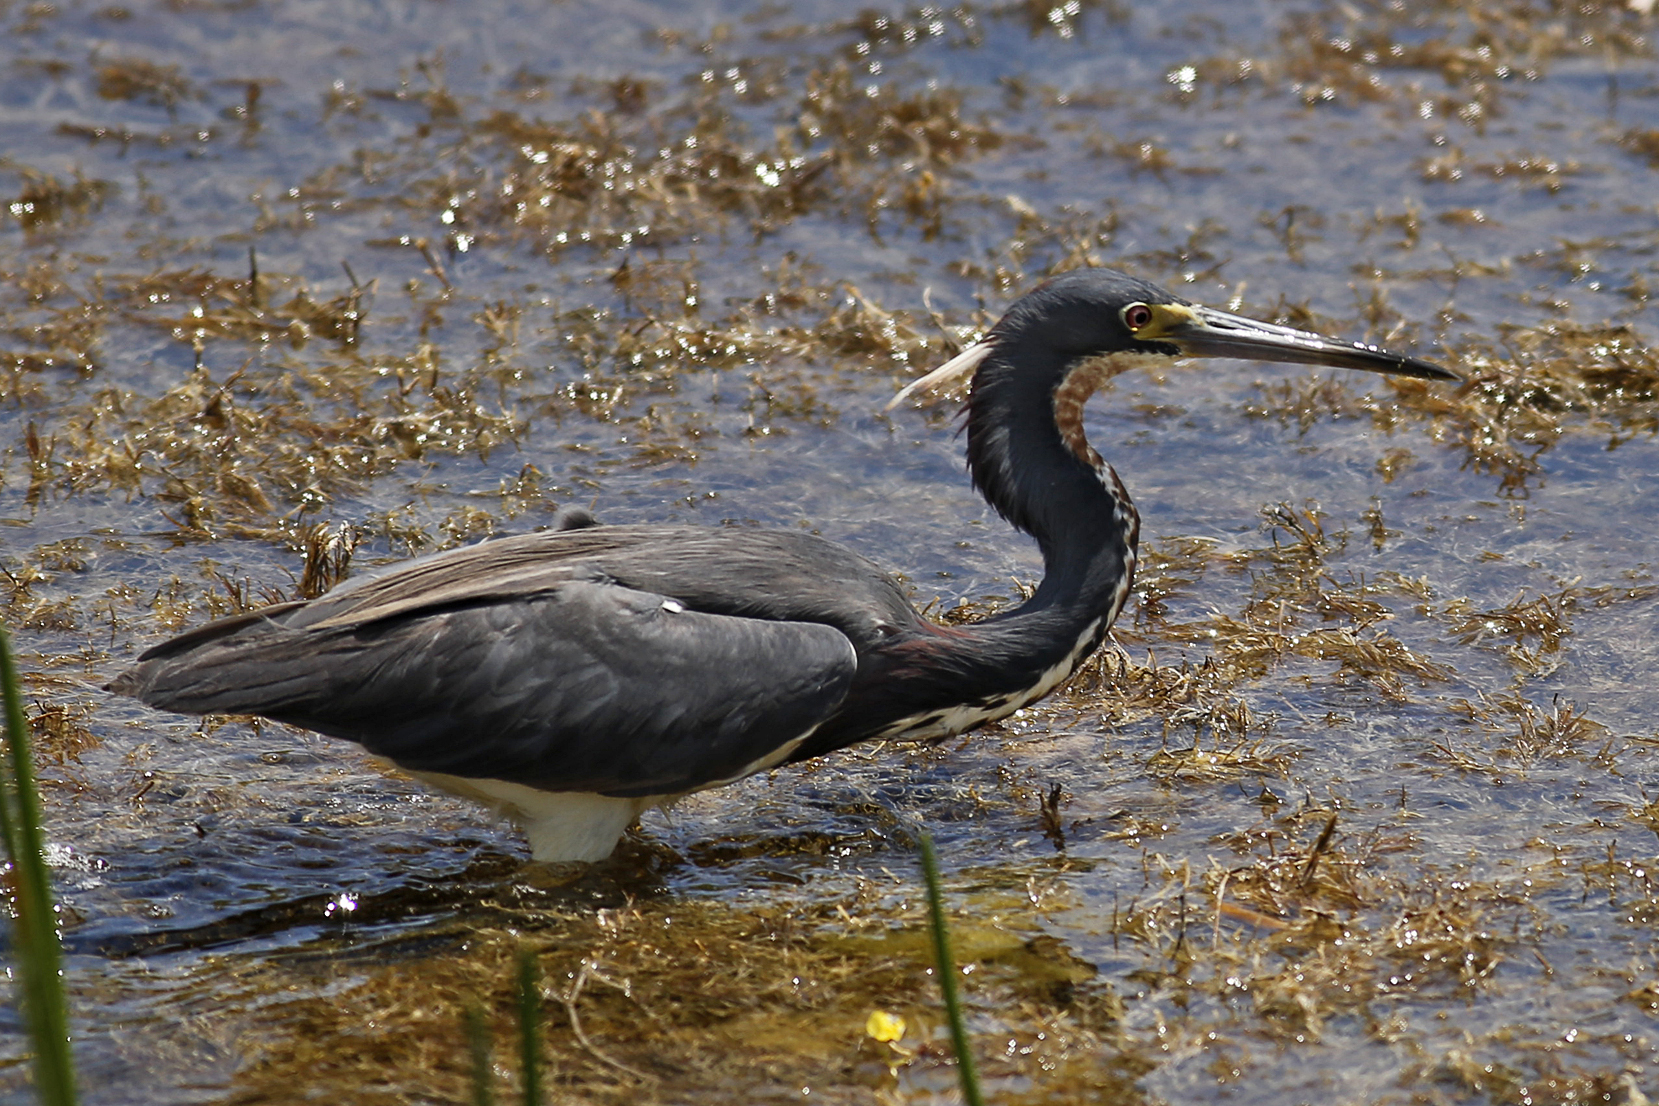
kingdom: Animalia
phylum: Chordata
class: Aves
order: Pelecaniformes
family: Ardeidae
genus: Egretta
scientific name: Egretta tricolor
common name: Tricolored heron
